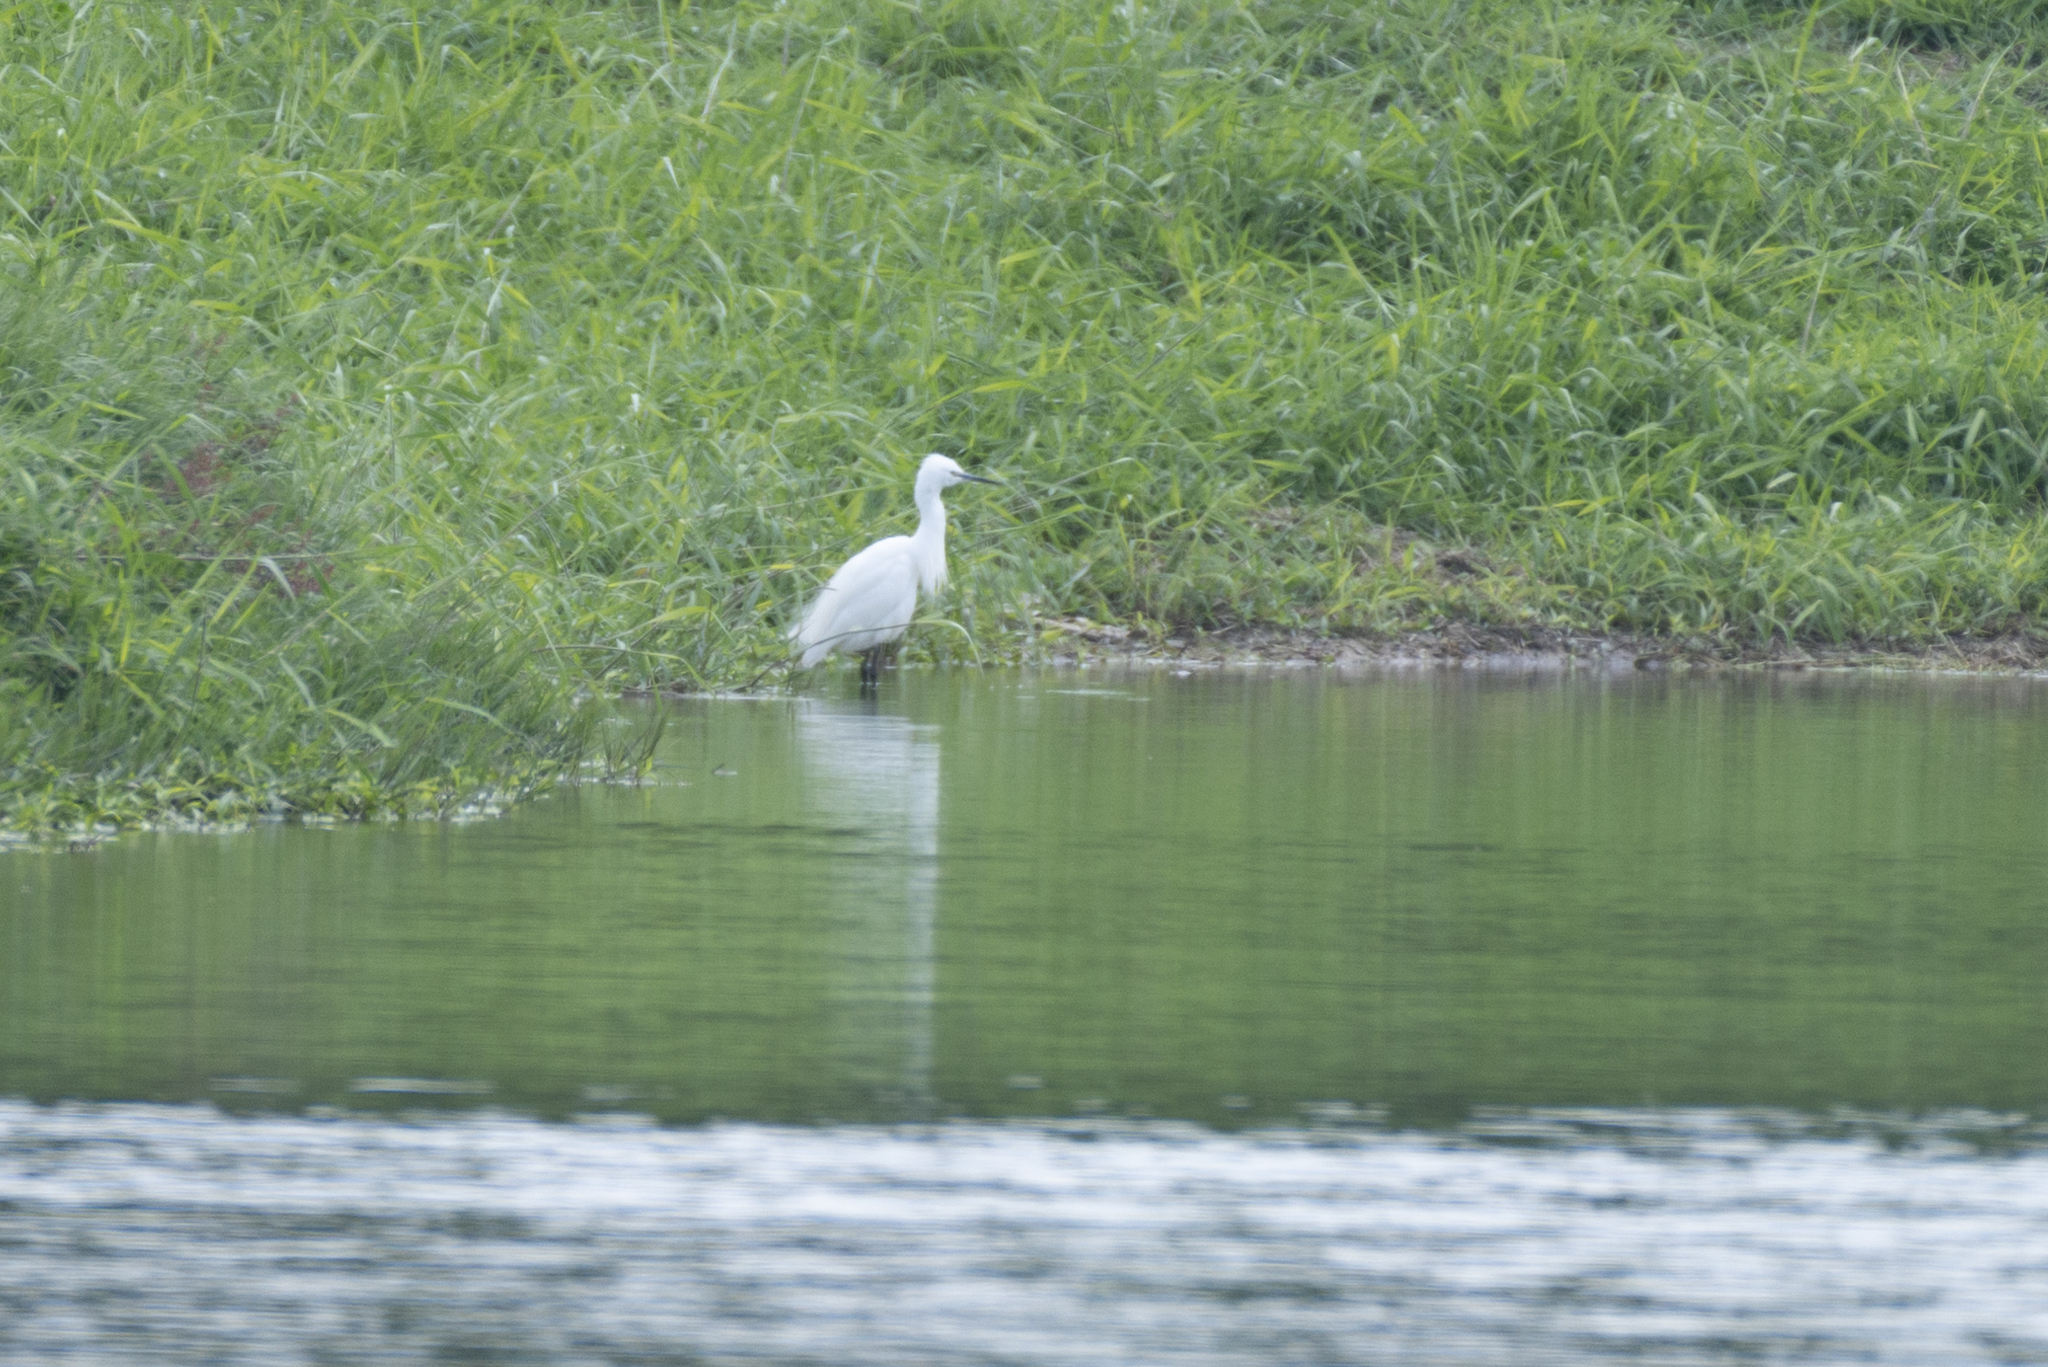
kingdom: Animalia
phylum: Chordata
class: Aves
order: Pelecaniformes
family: Ardeidae
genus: Egretta
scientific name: Egretta garzetta
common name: Little egret
